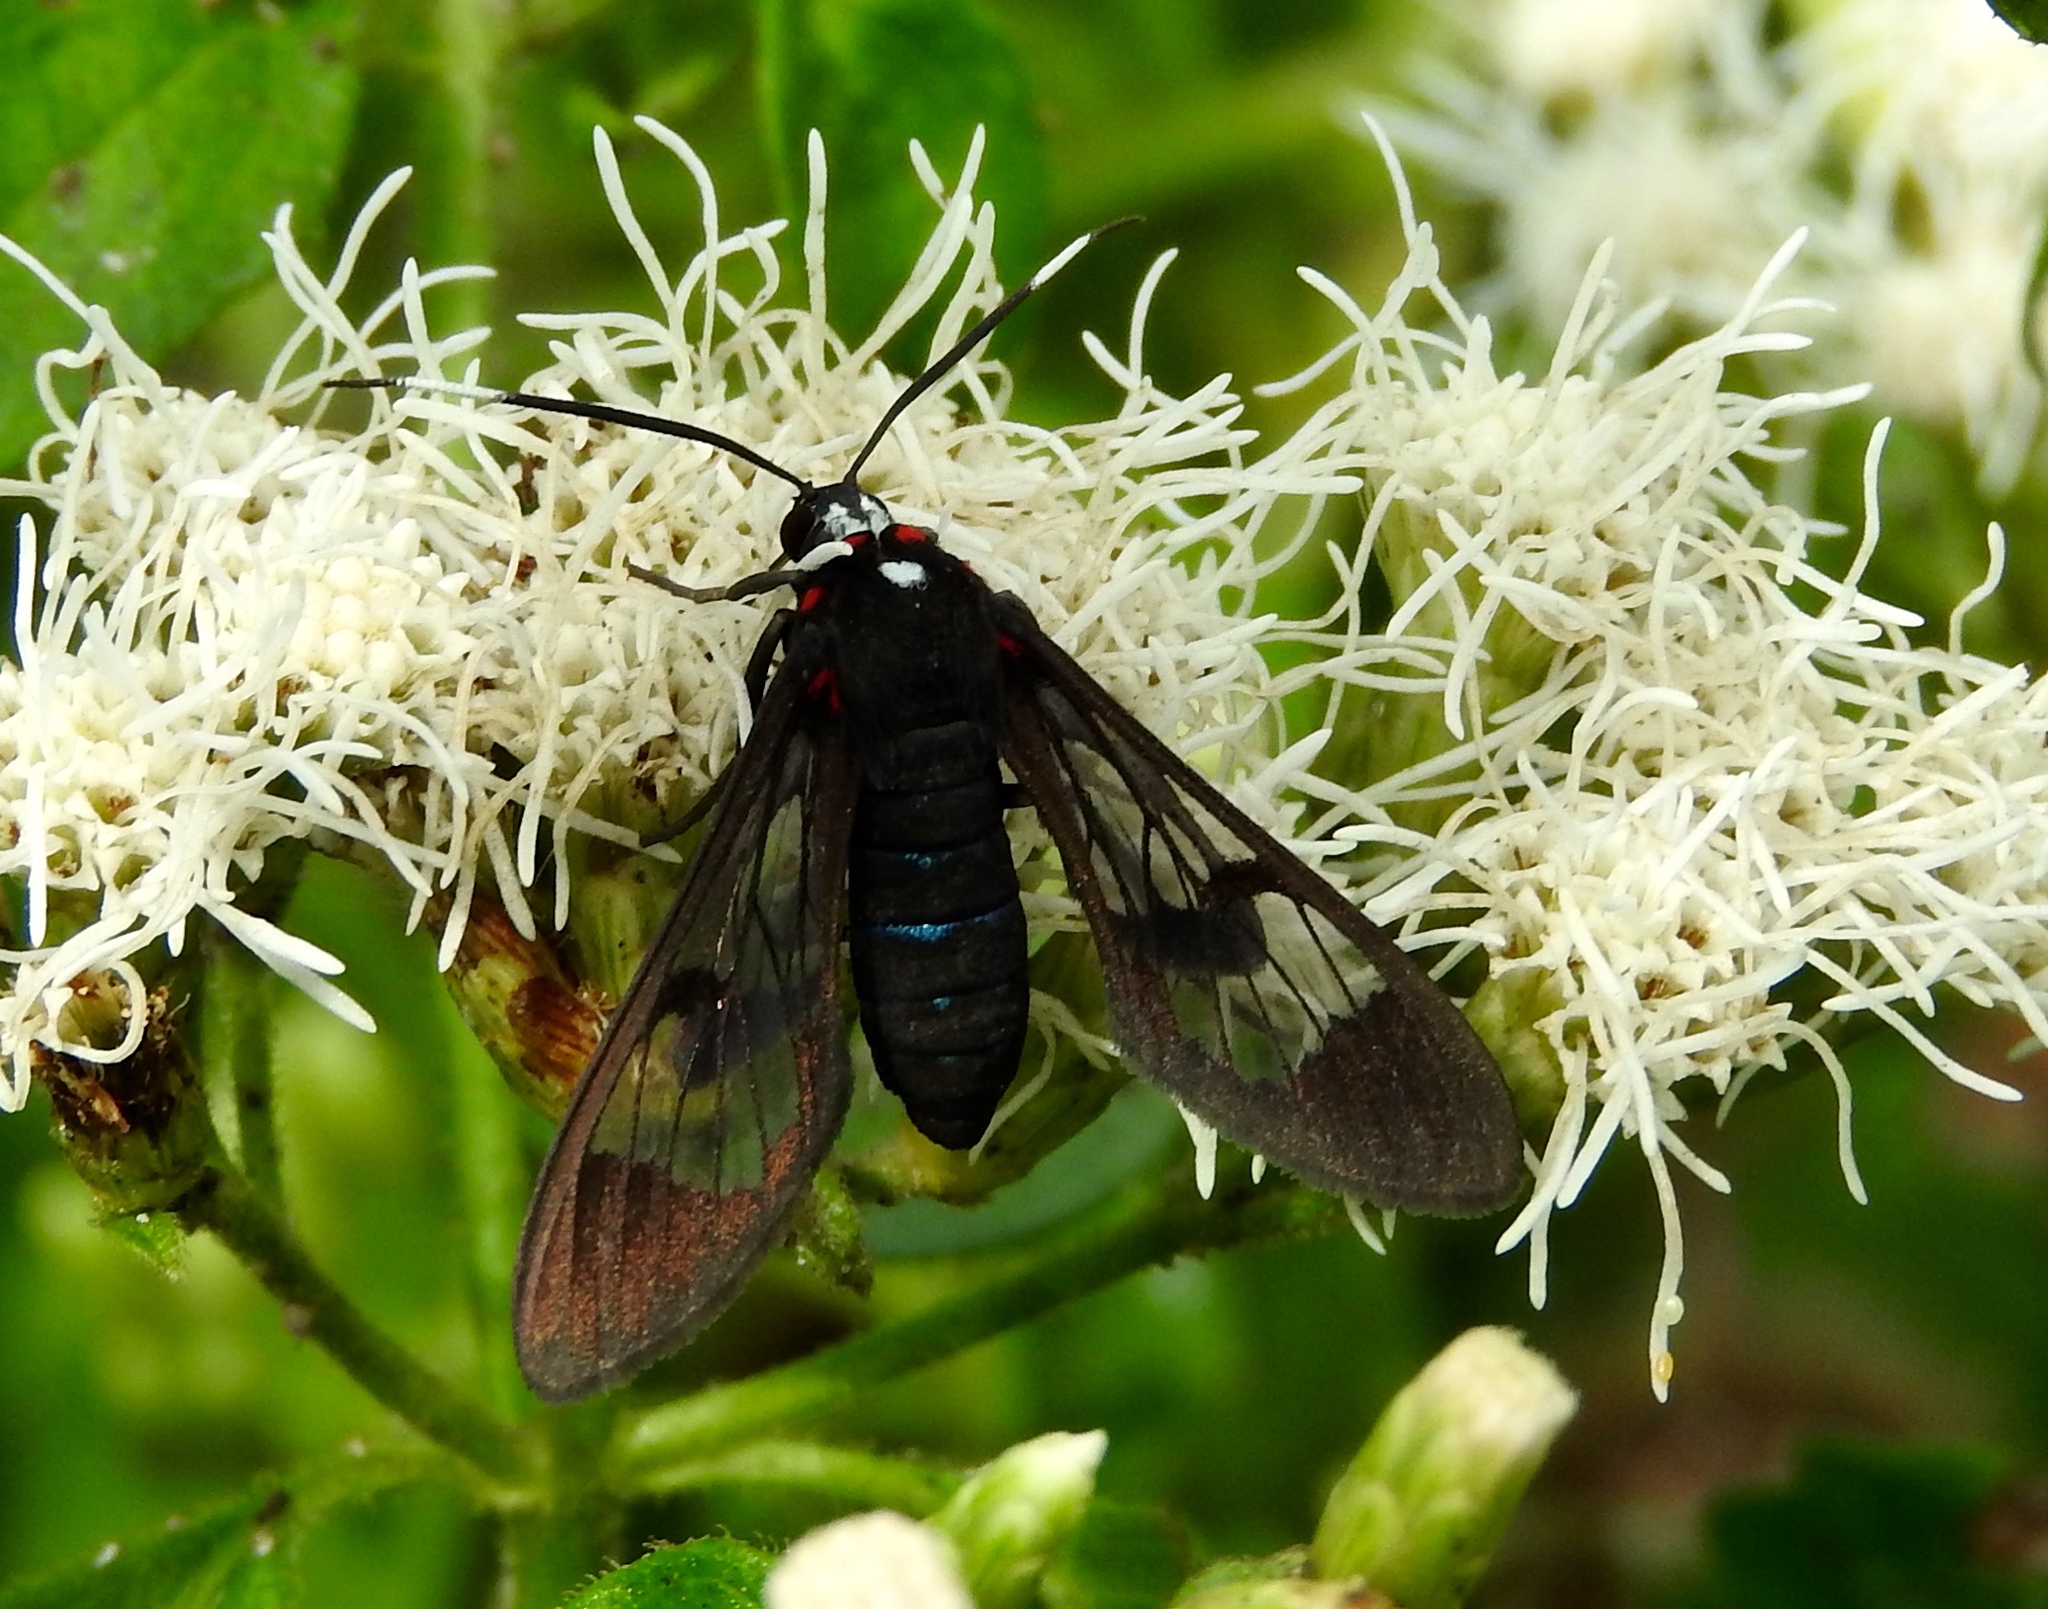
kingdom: Animalia
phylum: Arthropoda
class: Insecta
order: Lepidoptera
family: Erebidae
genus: Pheia
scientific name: Pheia haematosticta
